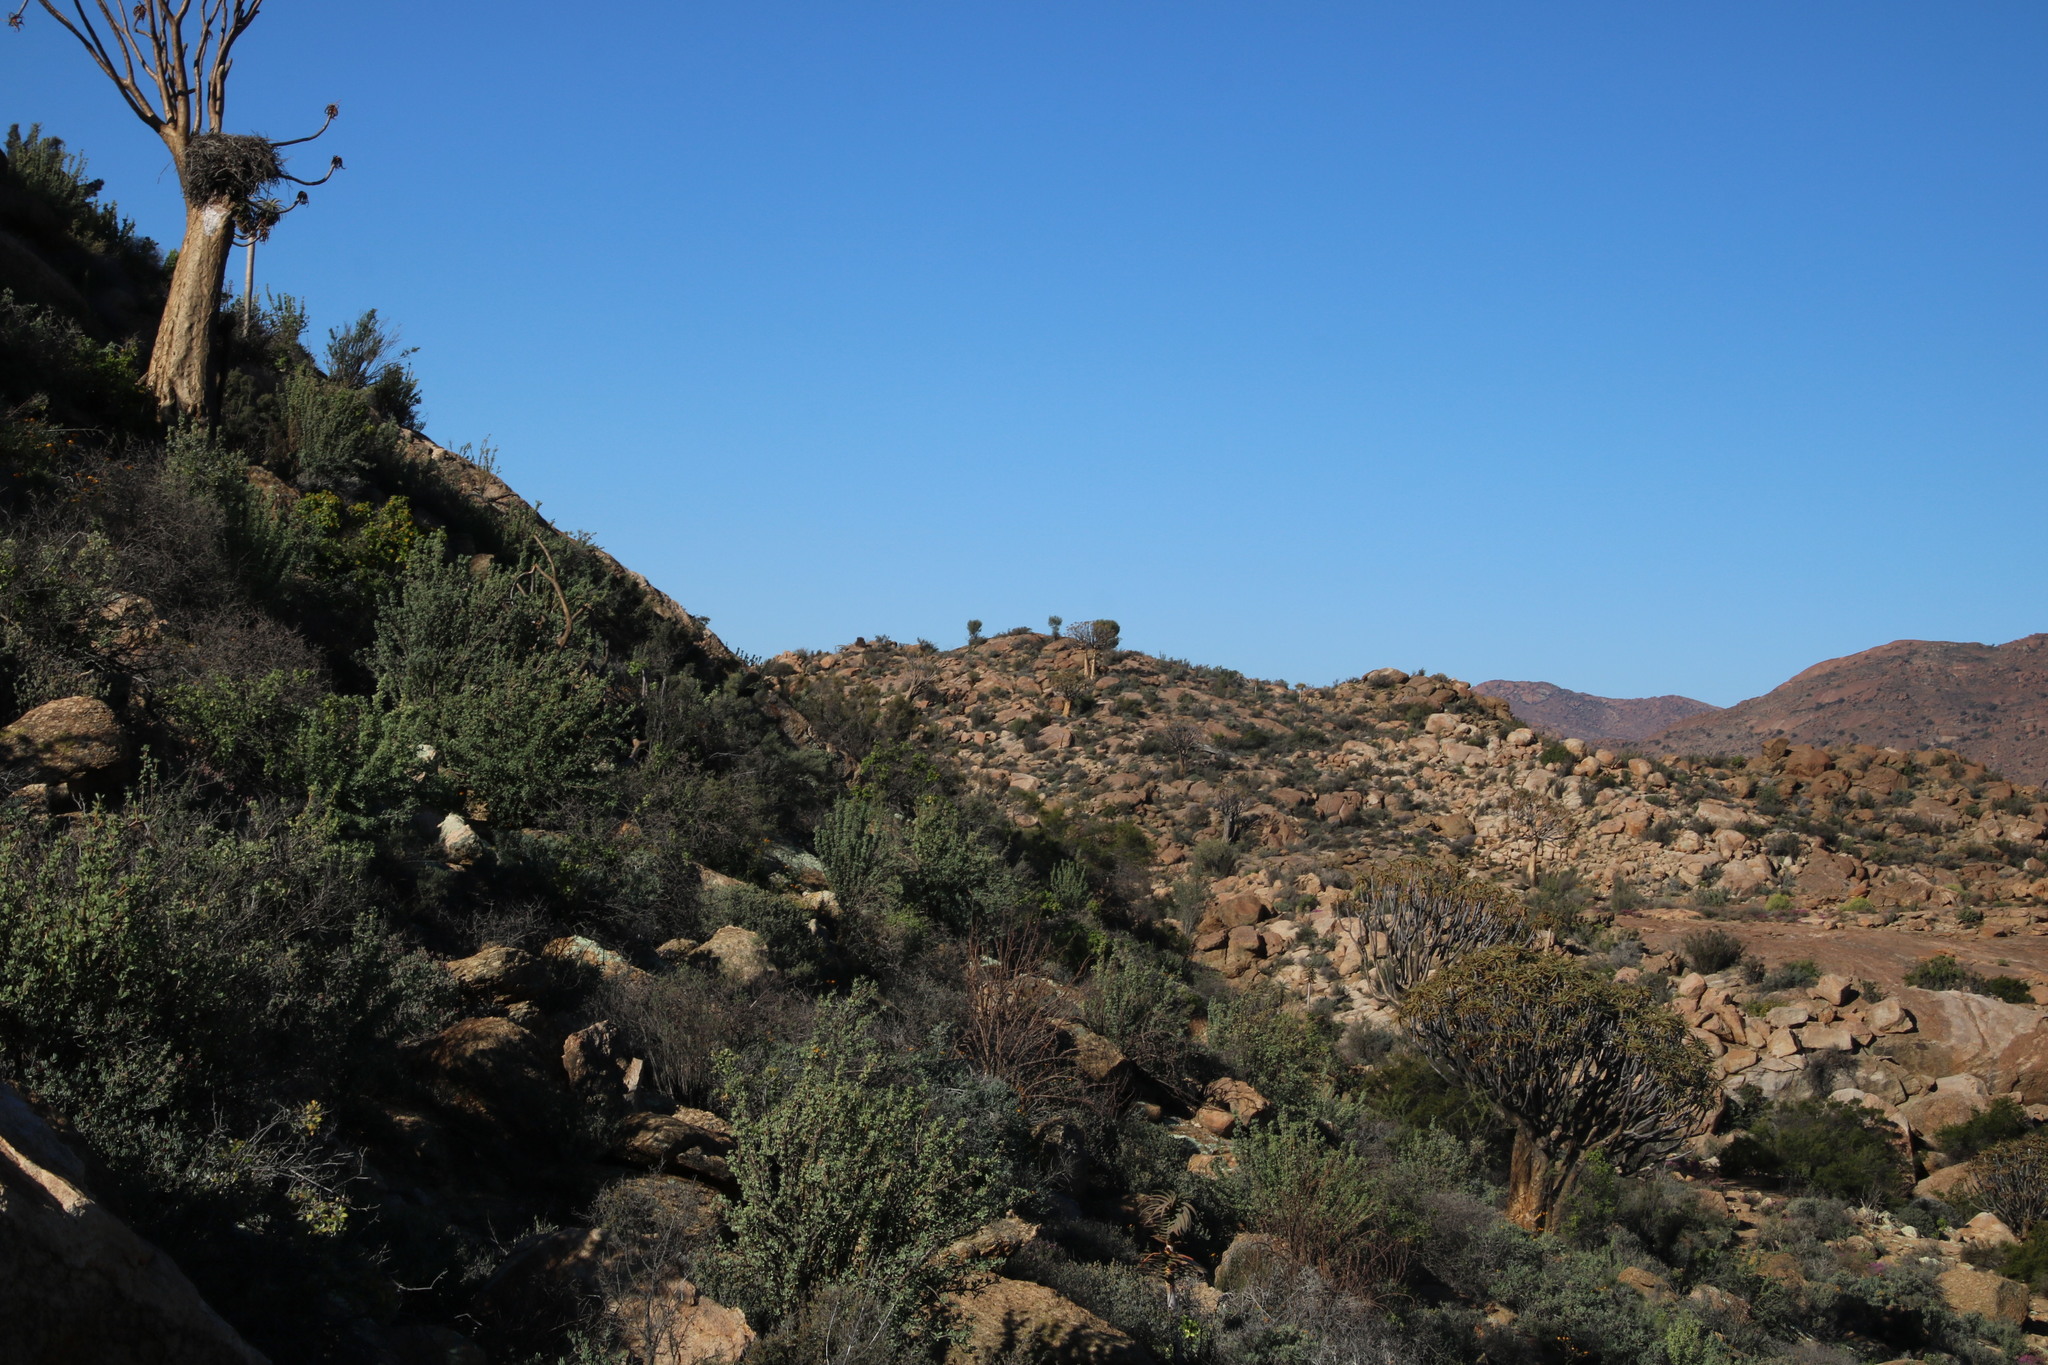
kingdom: Plantae
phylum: Tracheophyta
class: Liliopsida
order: Asparagales
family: Asphodelaceae
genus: Aloidendron
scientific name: Aloidendron dichotomum
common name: Quiver tree
